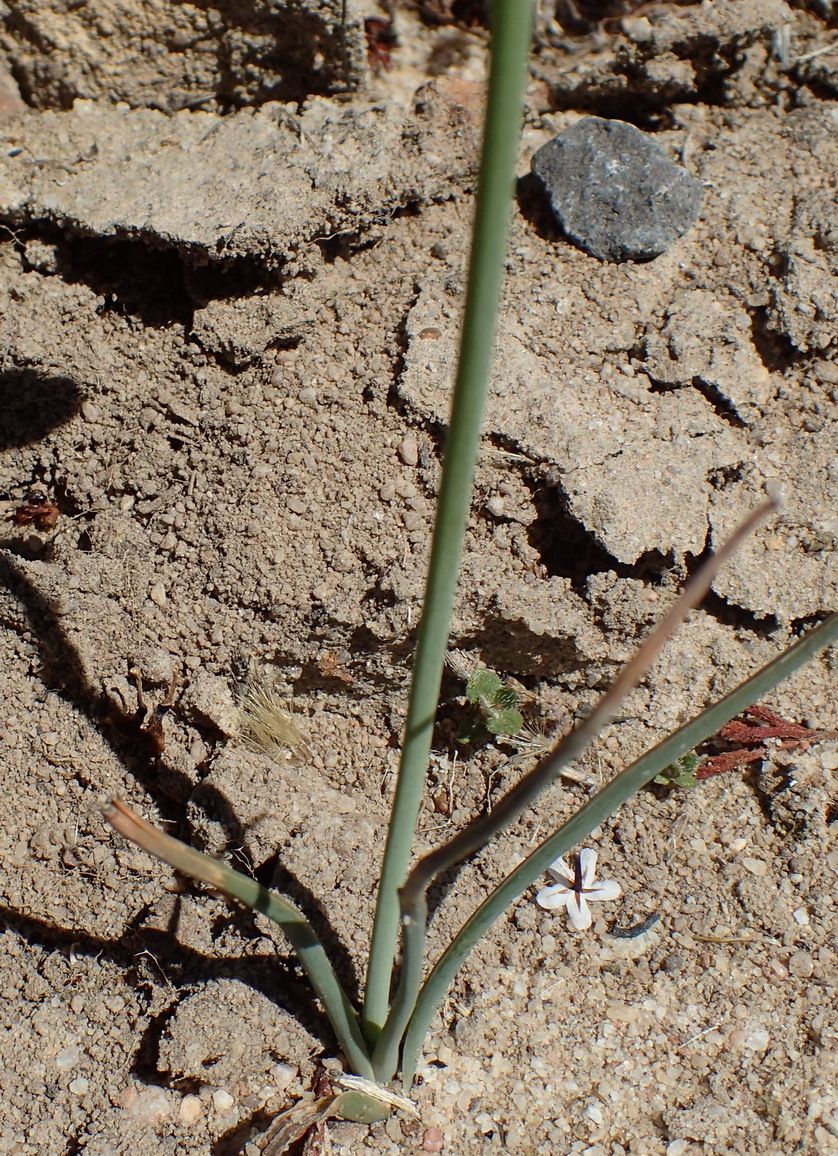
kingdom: Plantae
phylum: Tracheophyta
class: Liliopsida
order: Asparagales
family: Asparagaceae
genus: Albuca
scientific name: Albuca cooperi
